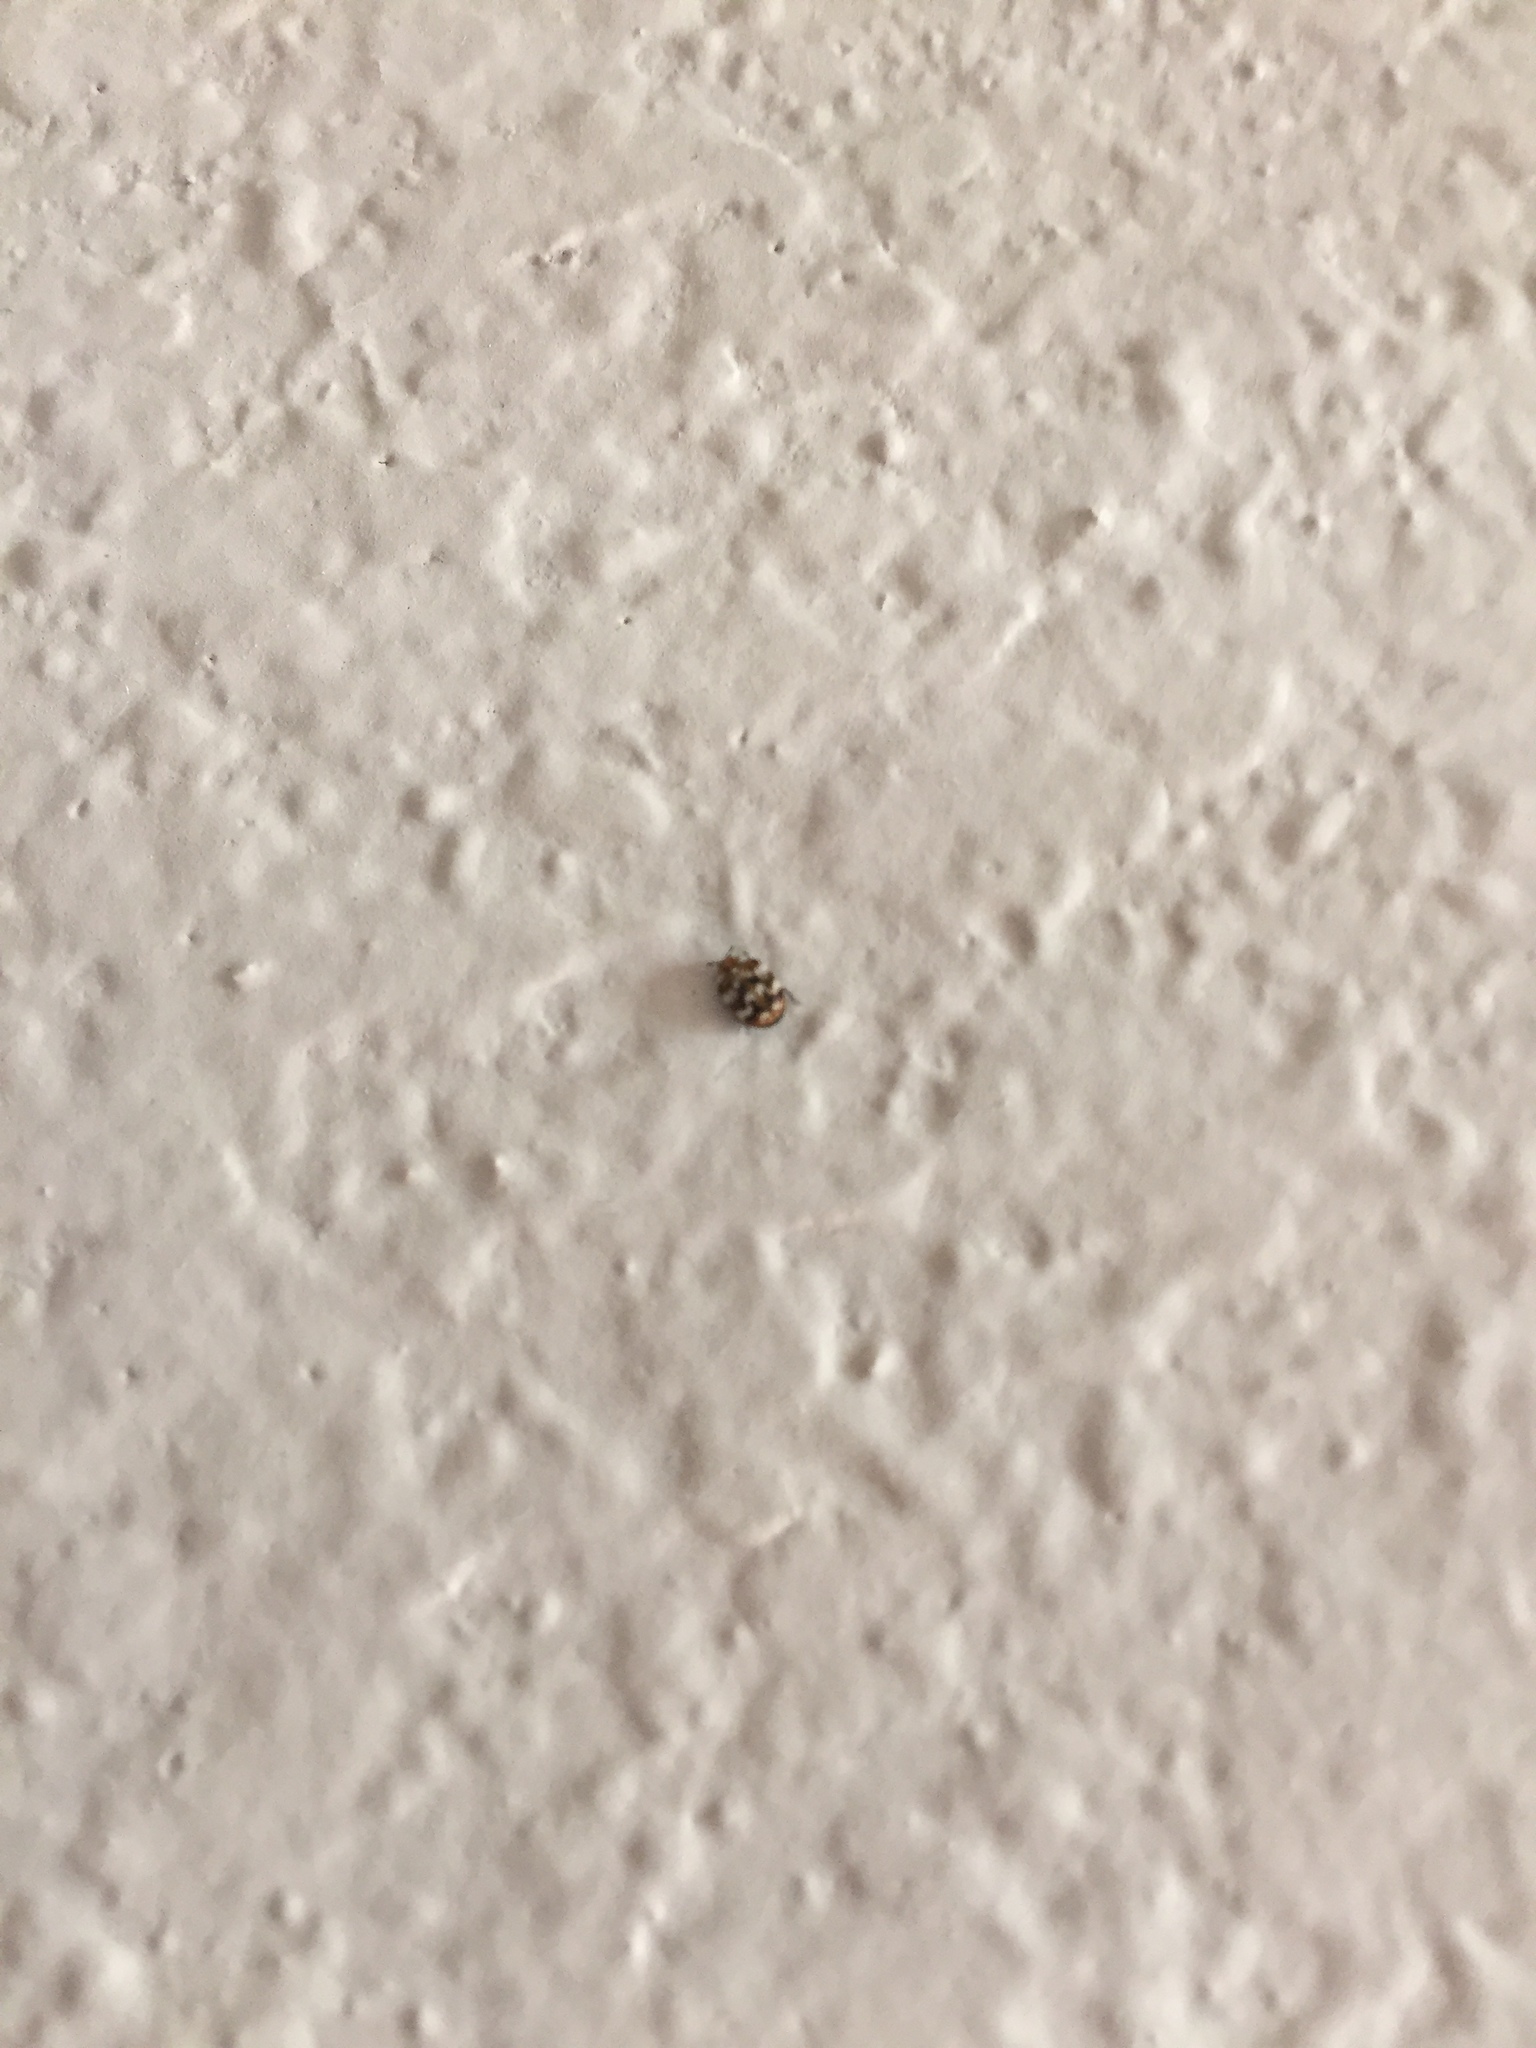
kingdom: Animalia
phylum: Arthropoda
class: Insecta
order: Coleoptera
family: Dermestidae
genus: Anthrenus
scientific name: Anthrenus verbasci
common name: Varied carpet beetle
